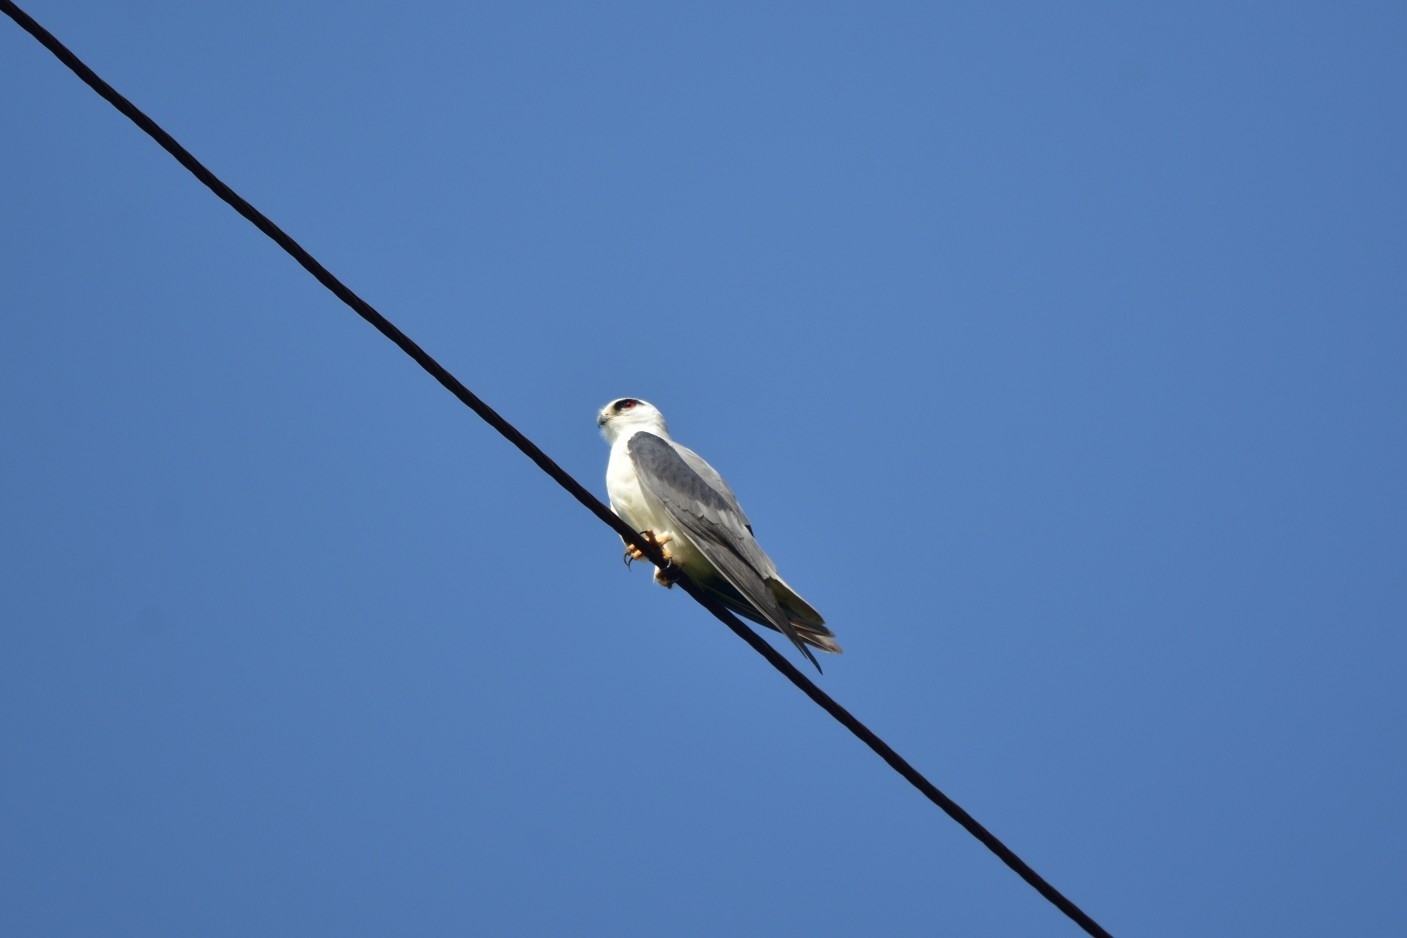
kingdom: Animalia
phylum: Chordata
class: Aves
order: Accipitriformes
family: Accipitridae
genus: Elanus
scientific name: Elanus caeruleus
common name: Black-winged kite
